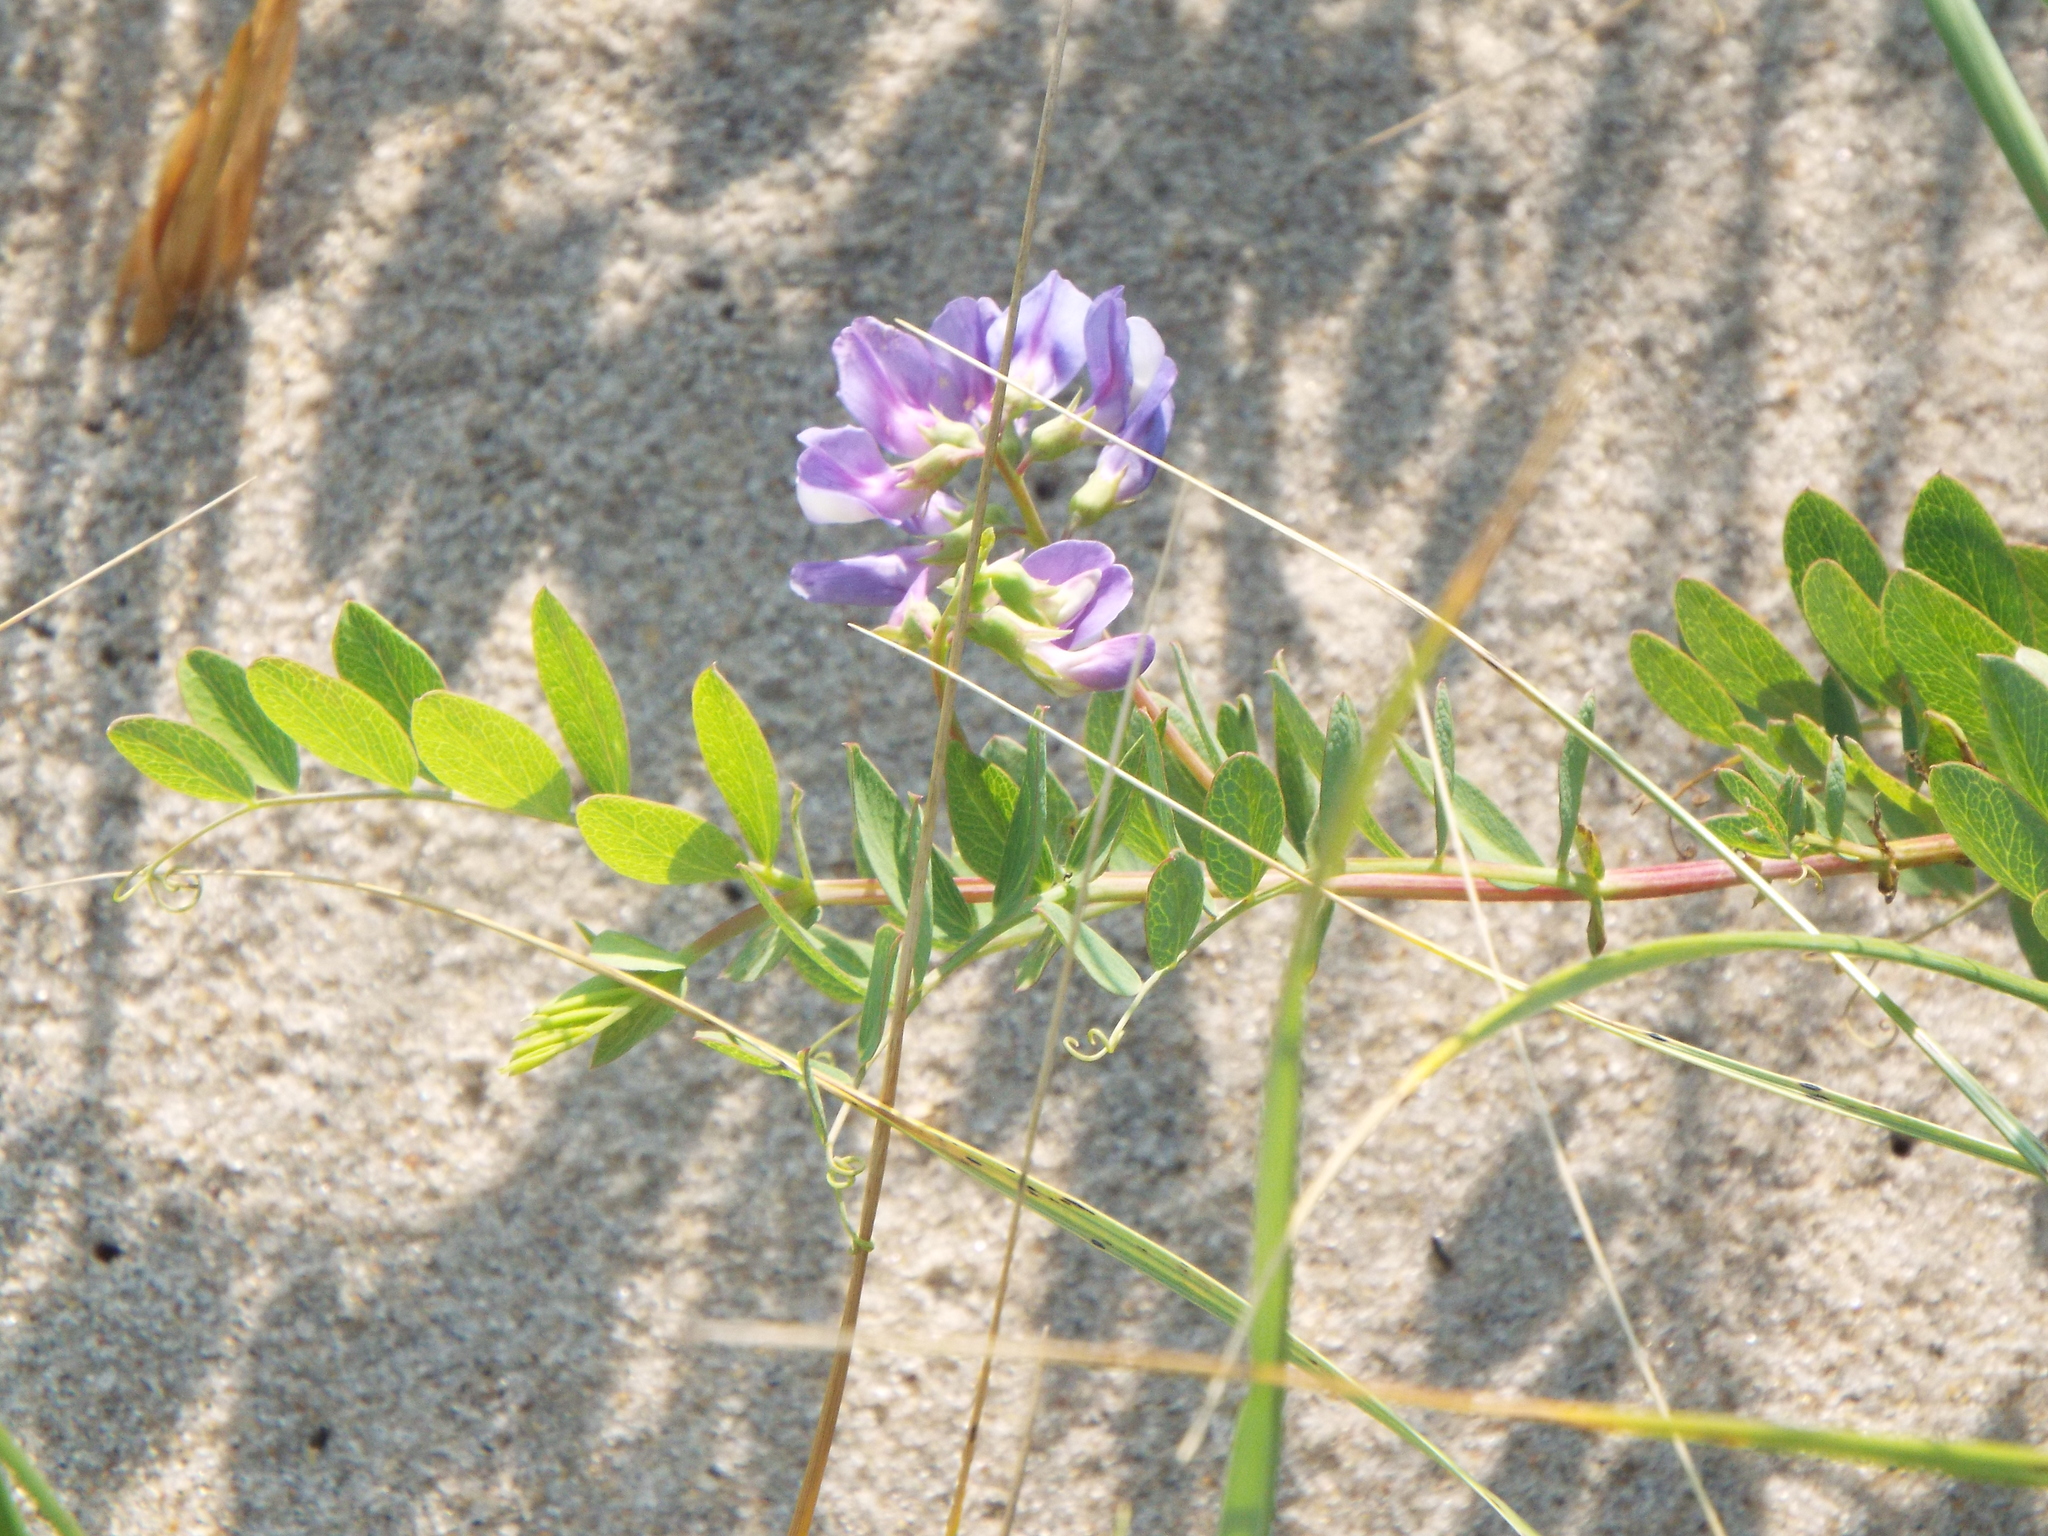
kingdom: Plantae
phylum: Tracheophyta
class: Magnoliopsida
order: Fabales
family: Fabaceae
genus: Lathyrus
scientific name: Lathyrus japonicus
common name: Sea pea
